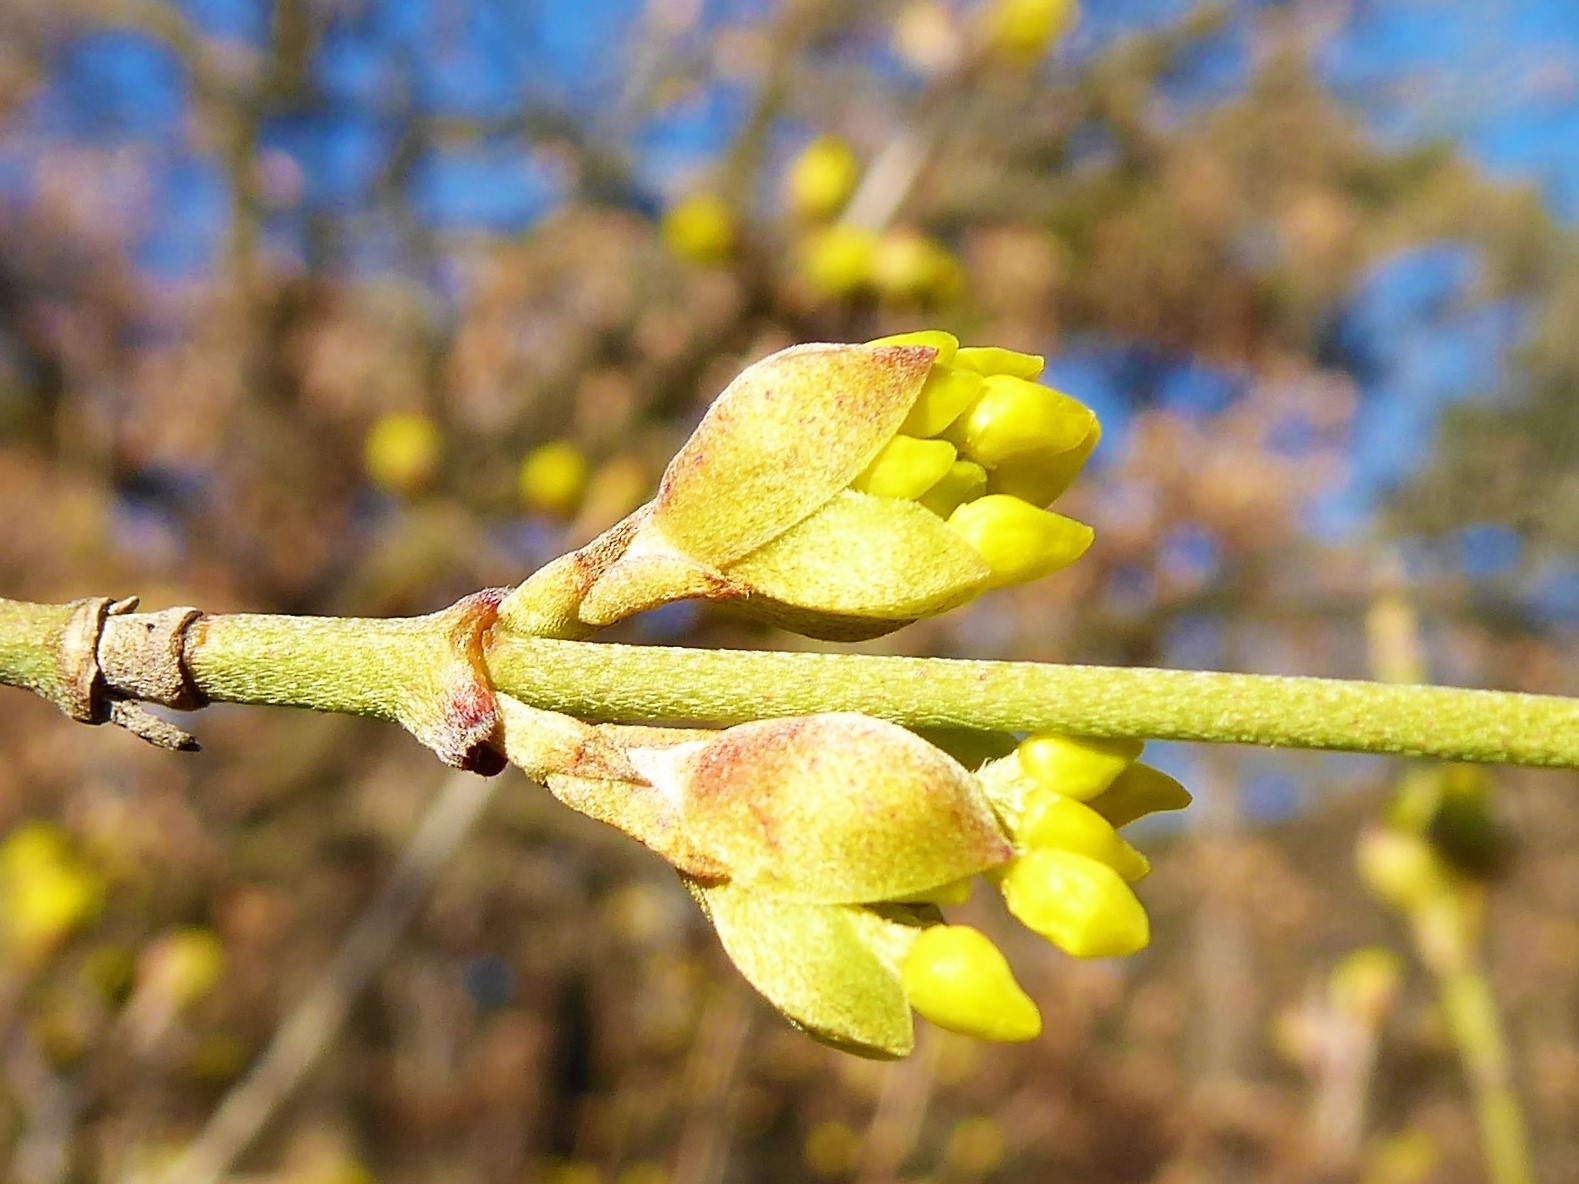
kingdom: Plantae
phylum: Tracheophyta
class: Magnoliopsida
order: Cornales
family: Cornaceae
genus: Cornus
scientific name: Cornus mas
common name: Cornelian-cherry
